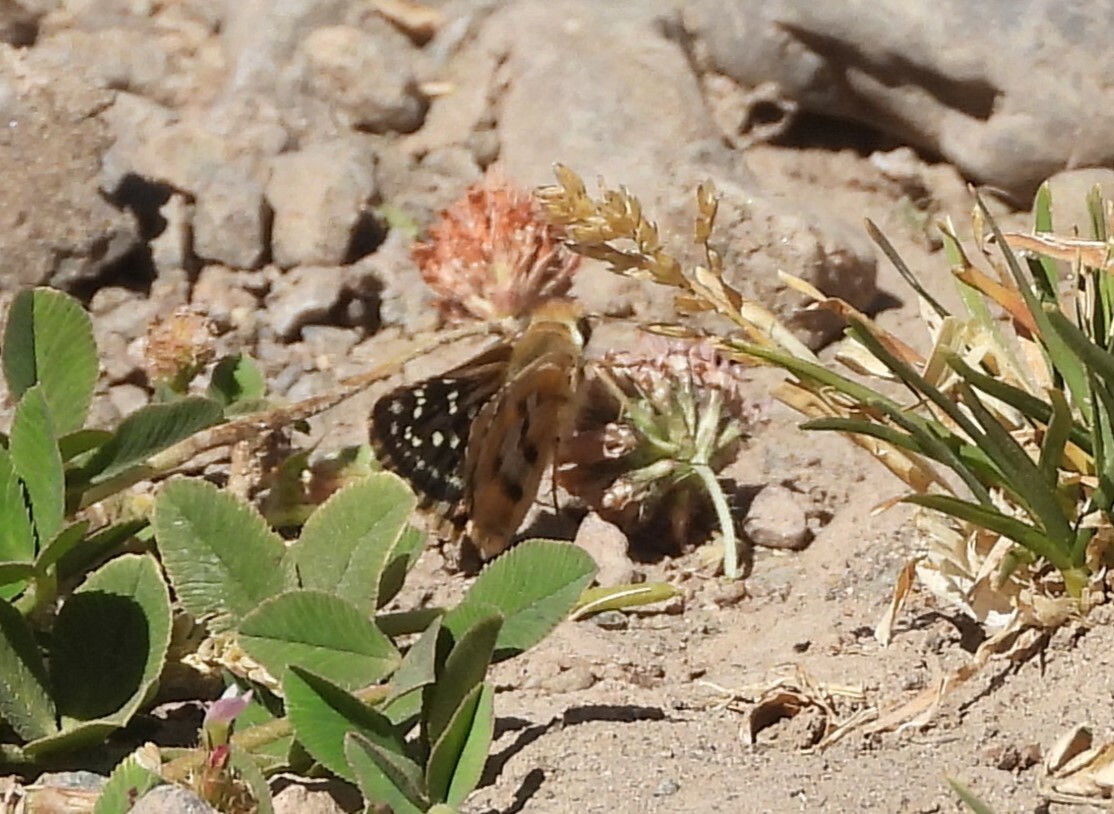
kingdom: Animalia
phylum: Arthropoda
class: Insecta
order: Lepidoptera
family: Hesperiidae
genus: Chirgus
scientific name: Chirgus fides
